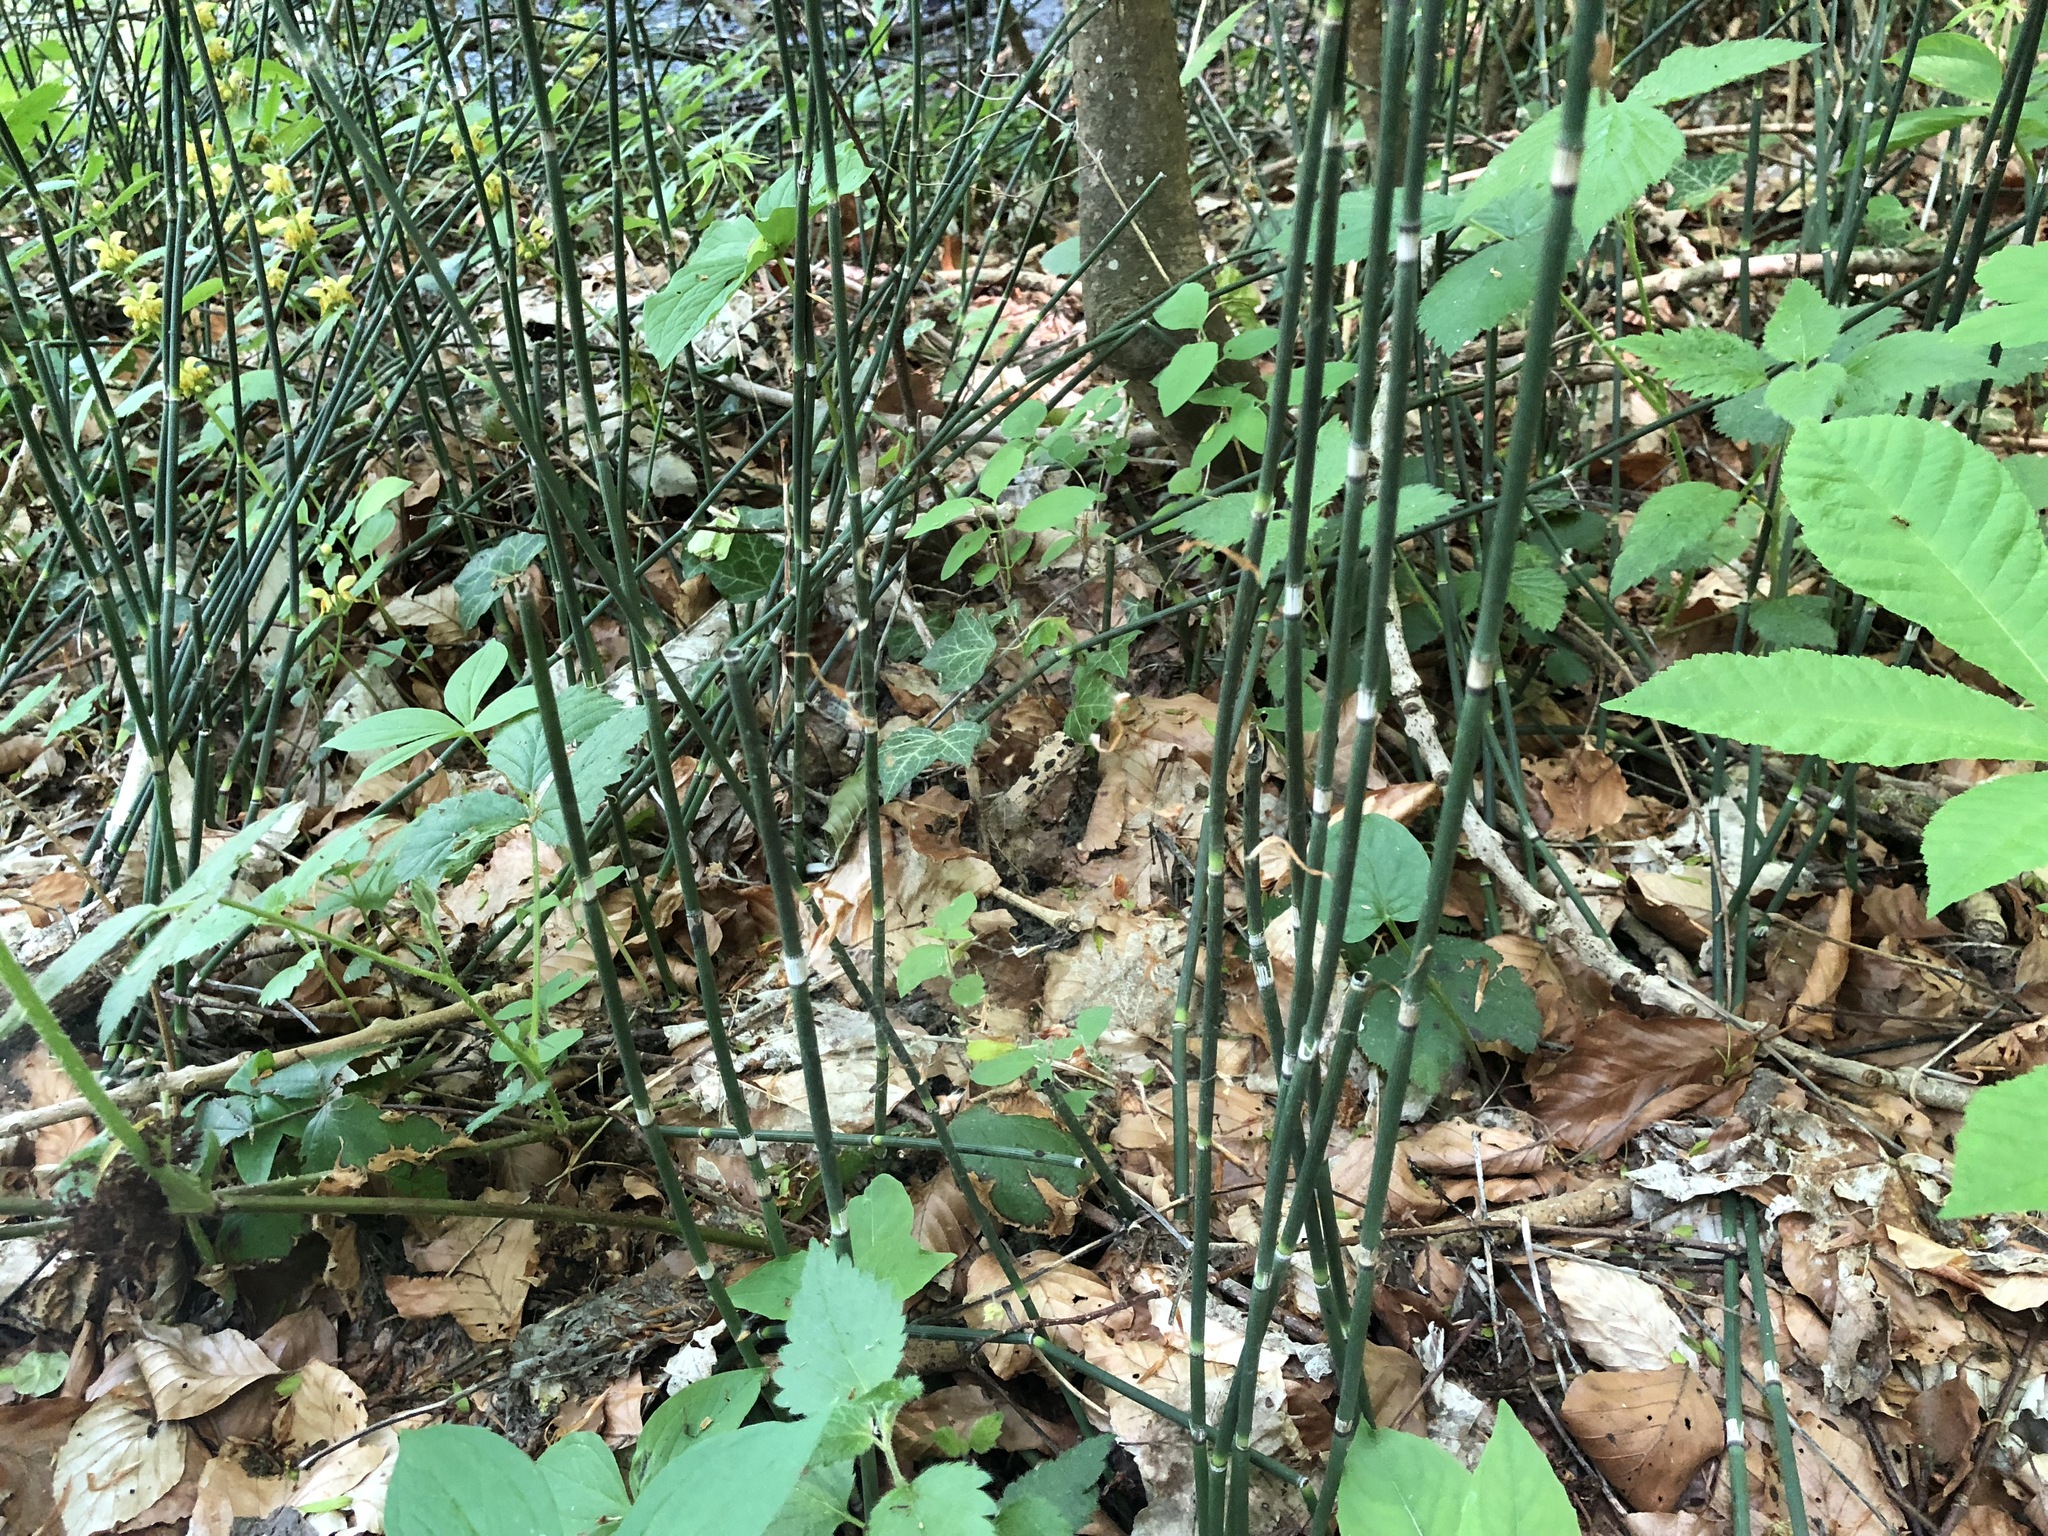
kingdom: Plantae
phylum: Tracheophyta
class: Polypodiopsida
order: Equisetales
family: Equisetaceae
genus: Equisetum
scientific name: Equisetum hyemale
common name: Rough horsetail
